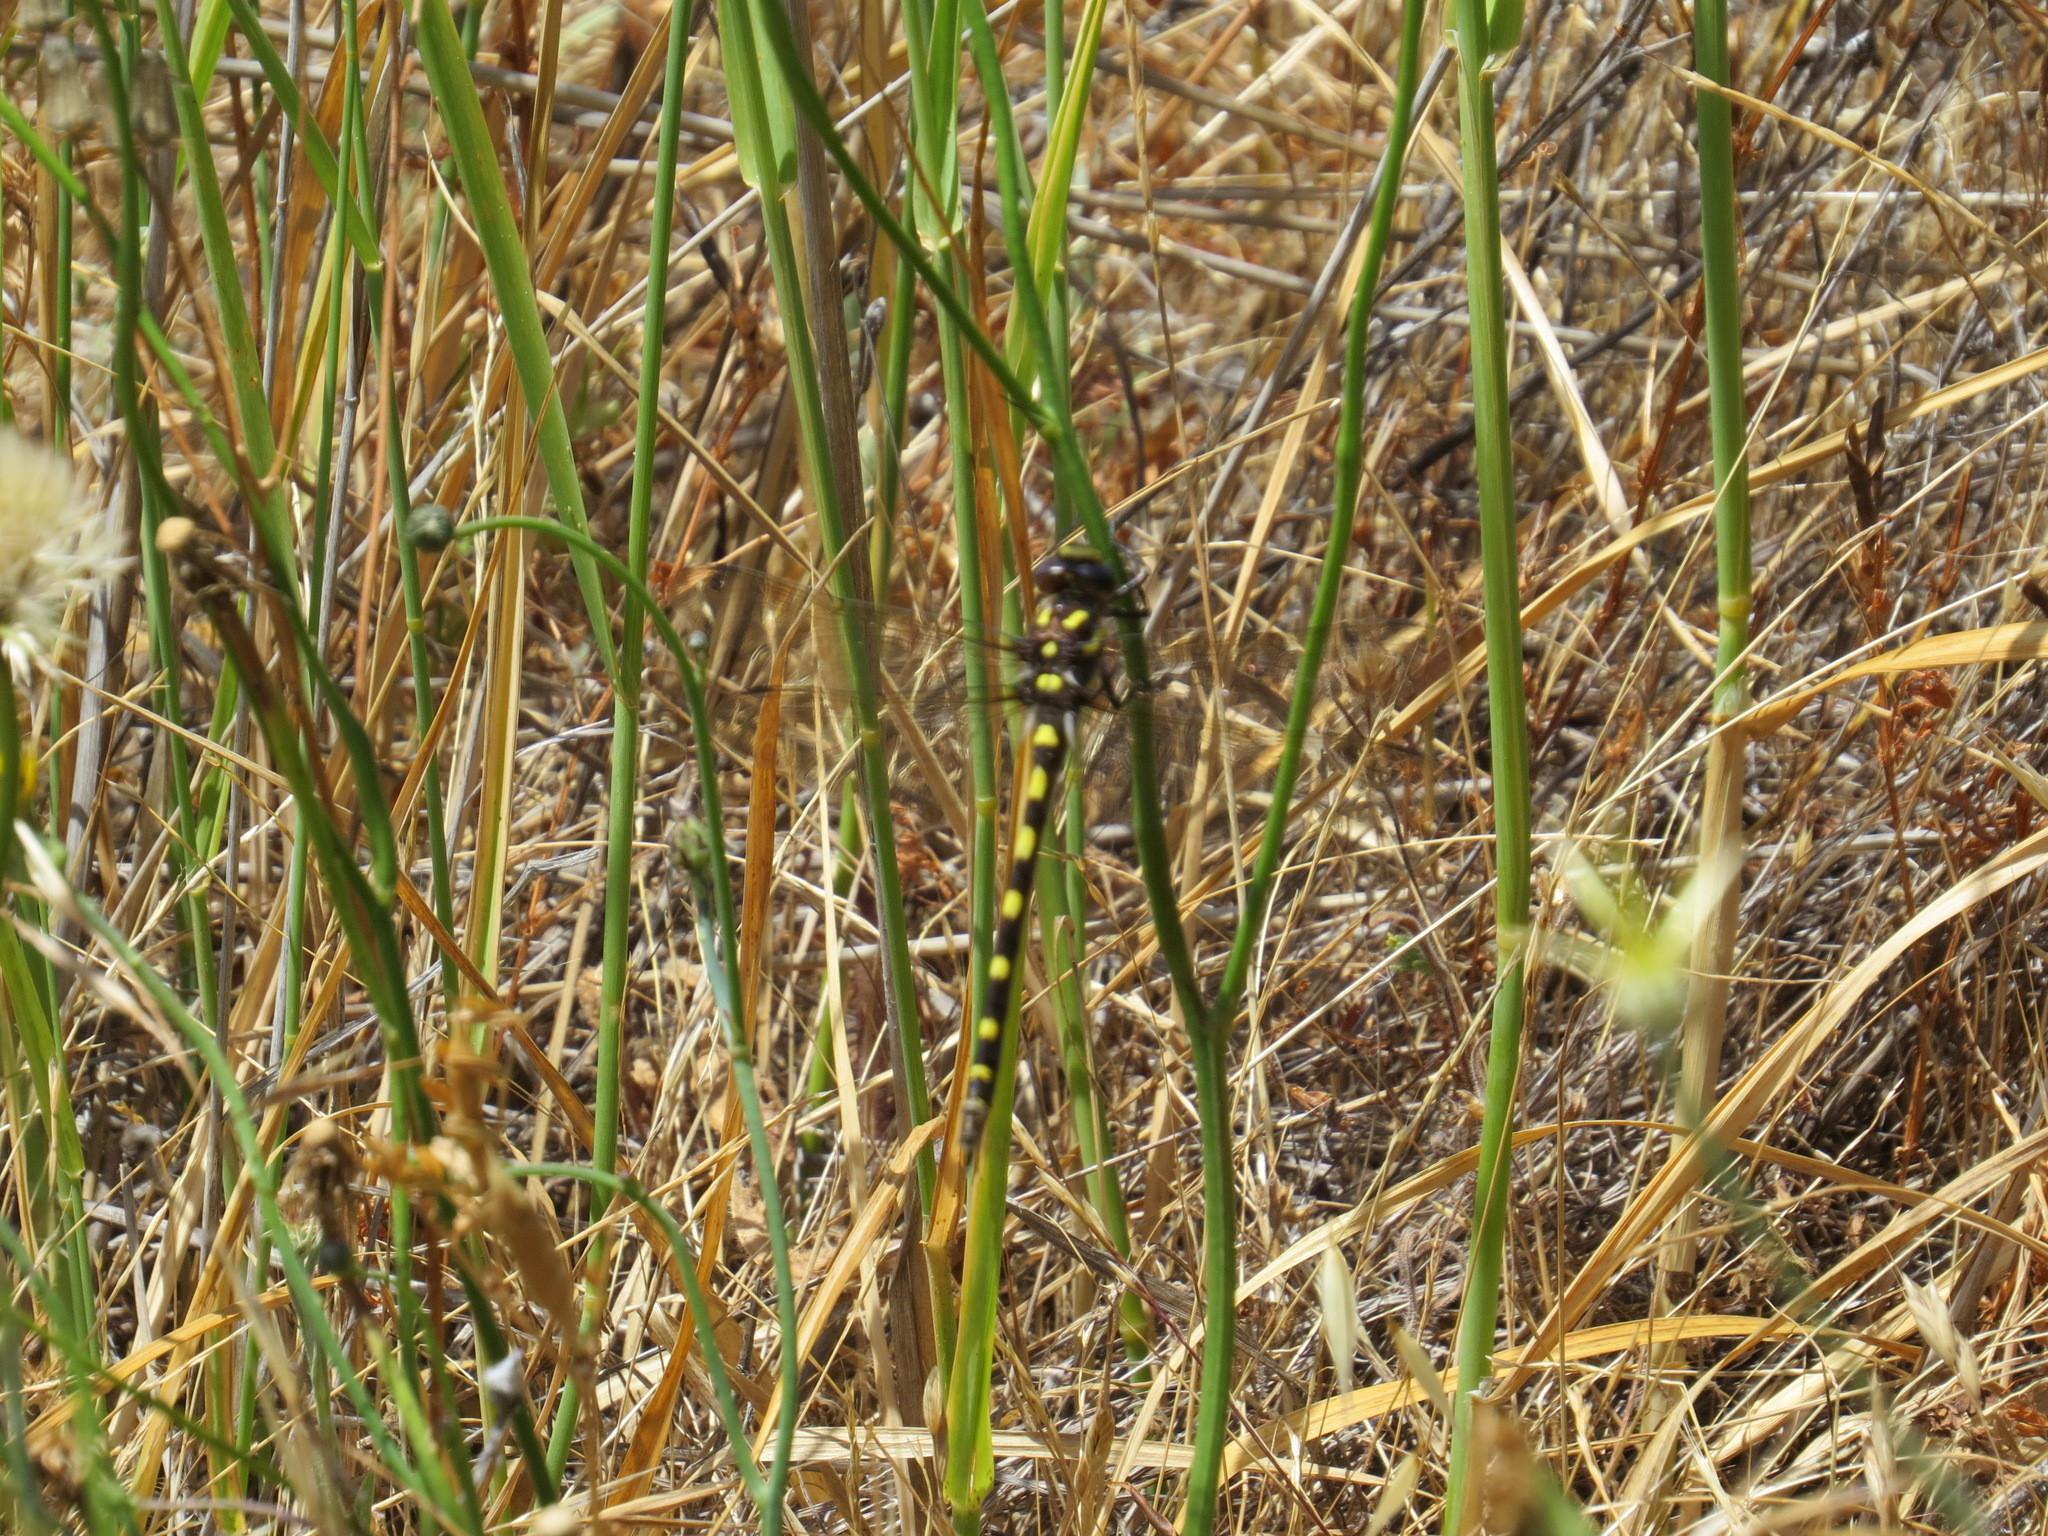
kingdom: Animalia
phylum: Arthropoda
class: Insecta
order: Odonata
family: Cordulegastridae
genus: Cordulegaster
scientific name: Cordulegaster dorsalis
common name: Pacific spiketail
